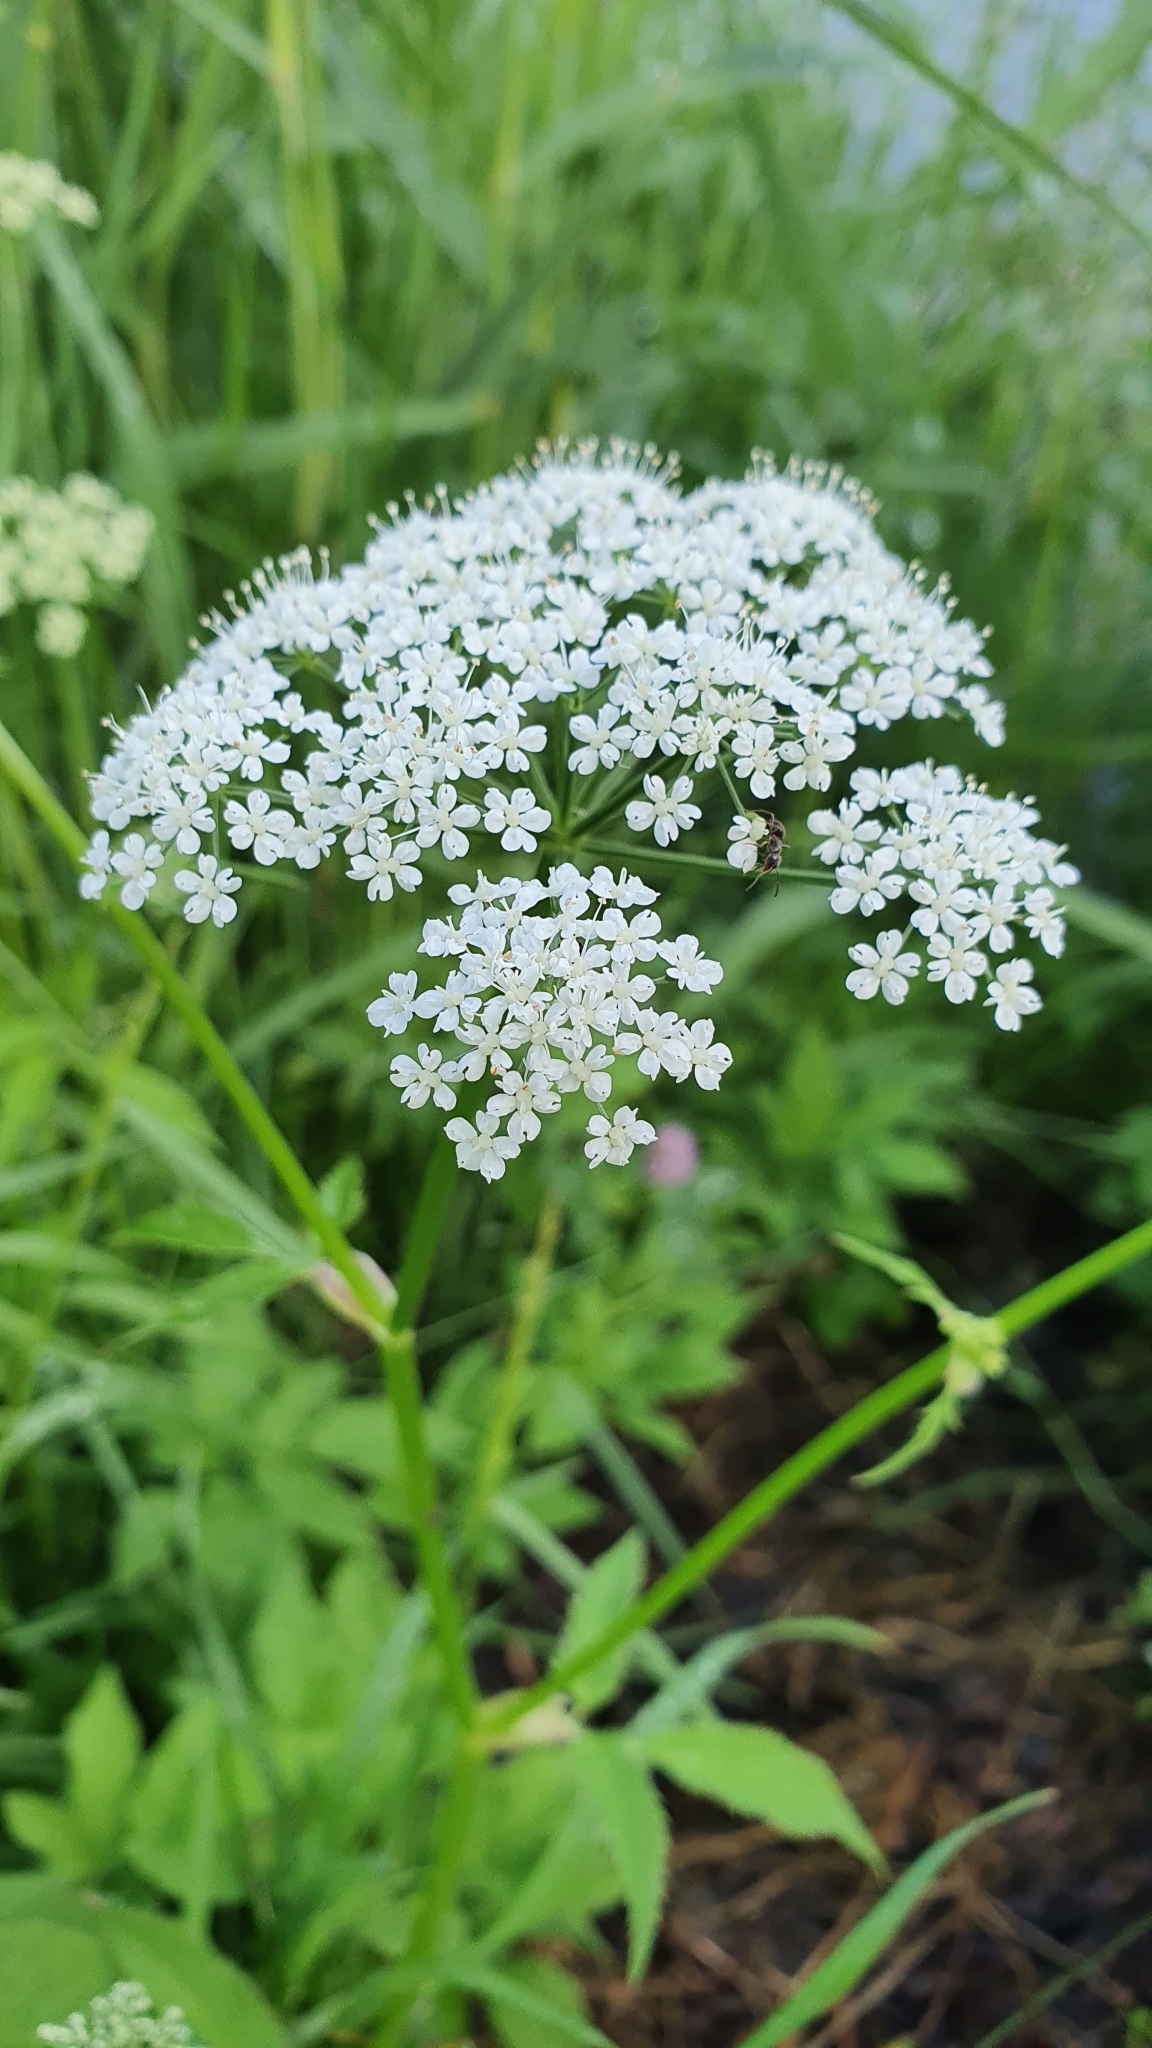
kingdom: Plantae
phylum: Tracheophyta
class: Magnoliopsida
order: Apiales
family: Apiaceae
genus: Aegopodium
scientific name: Aegopodium podagraria
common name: Ground-elder
